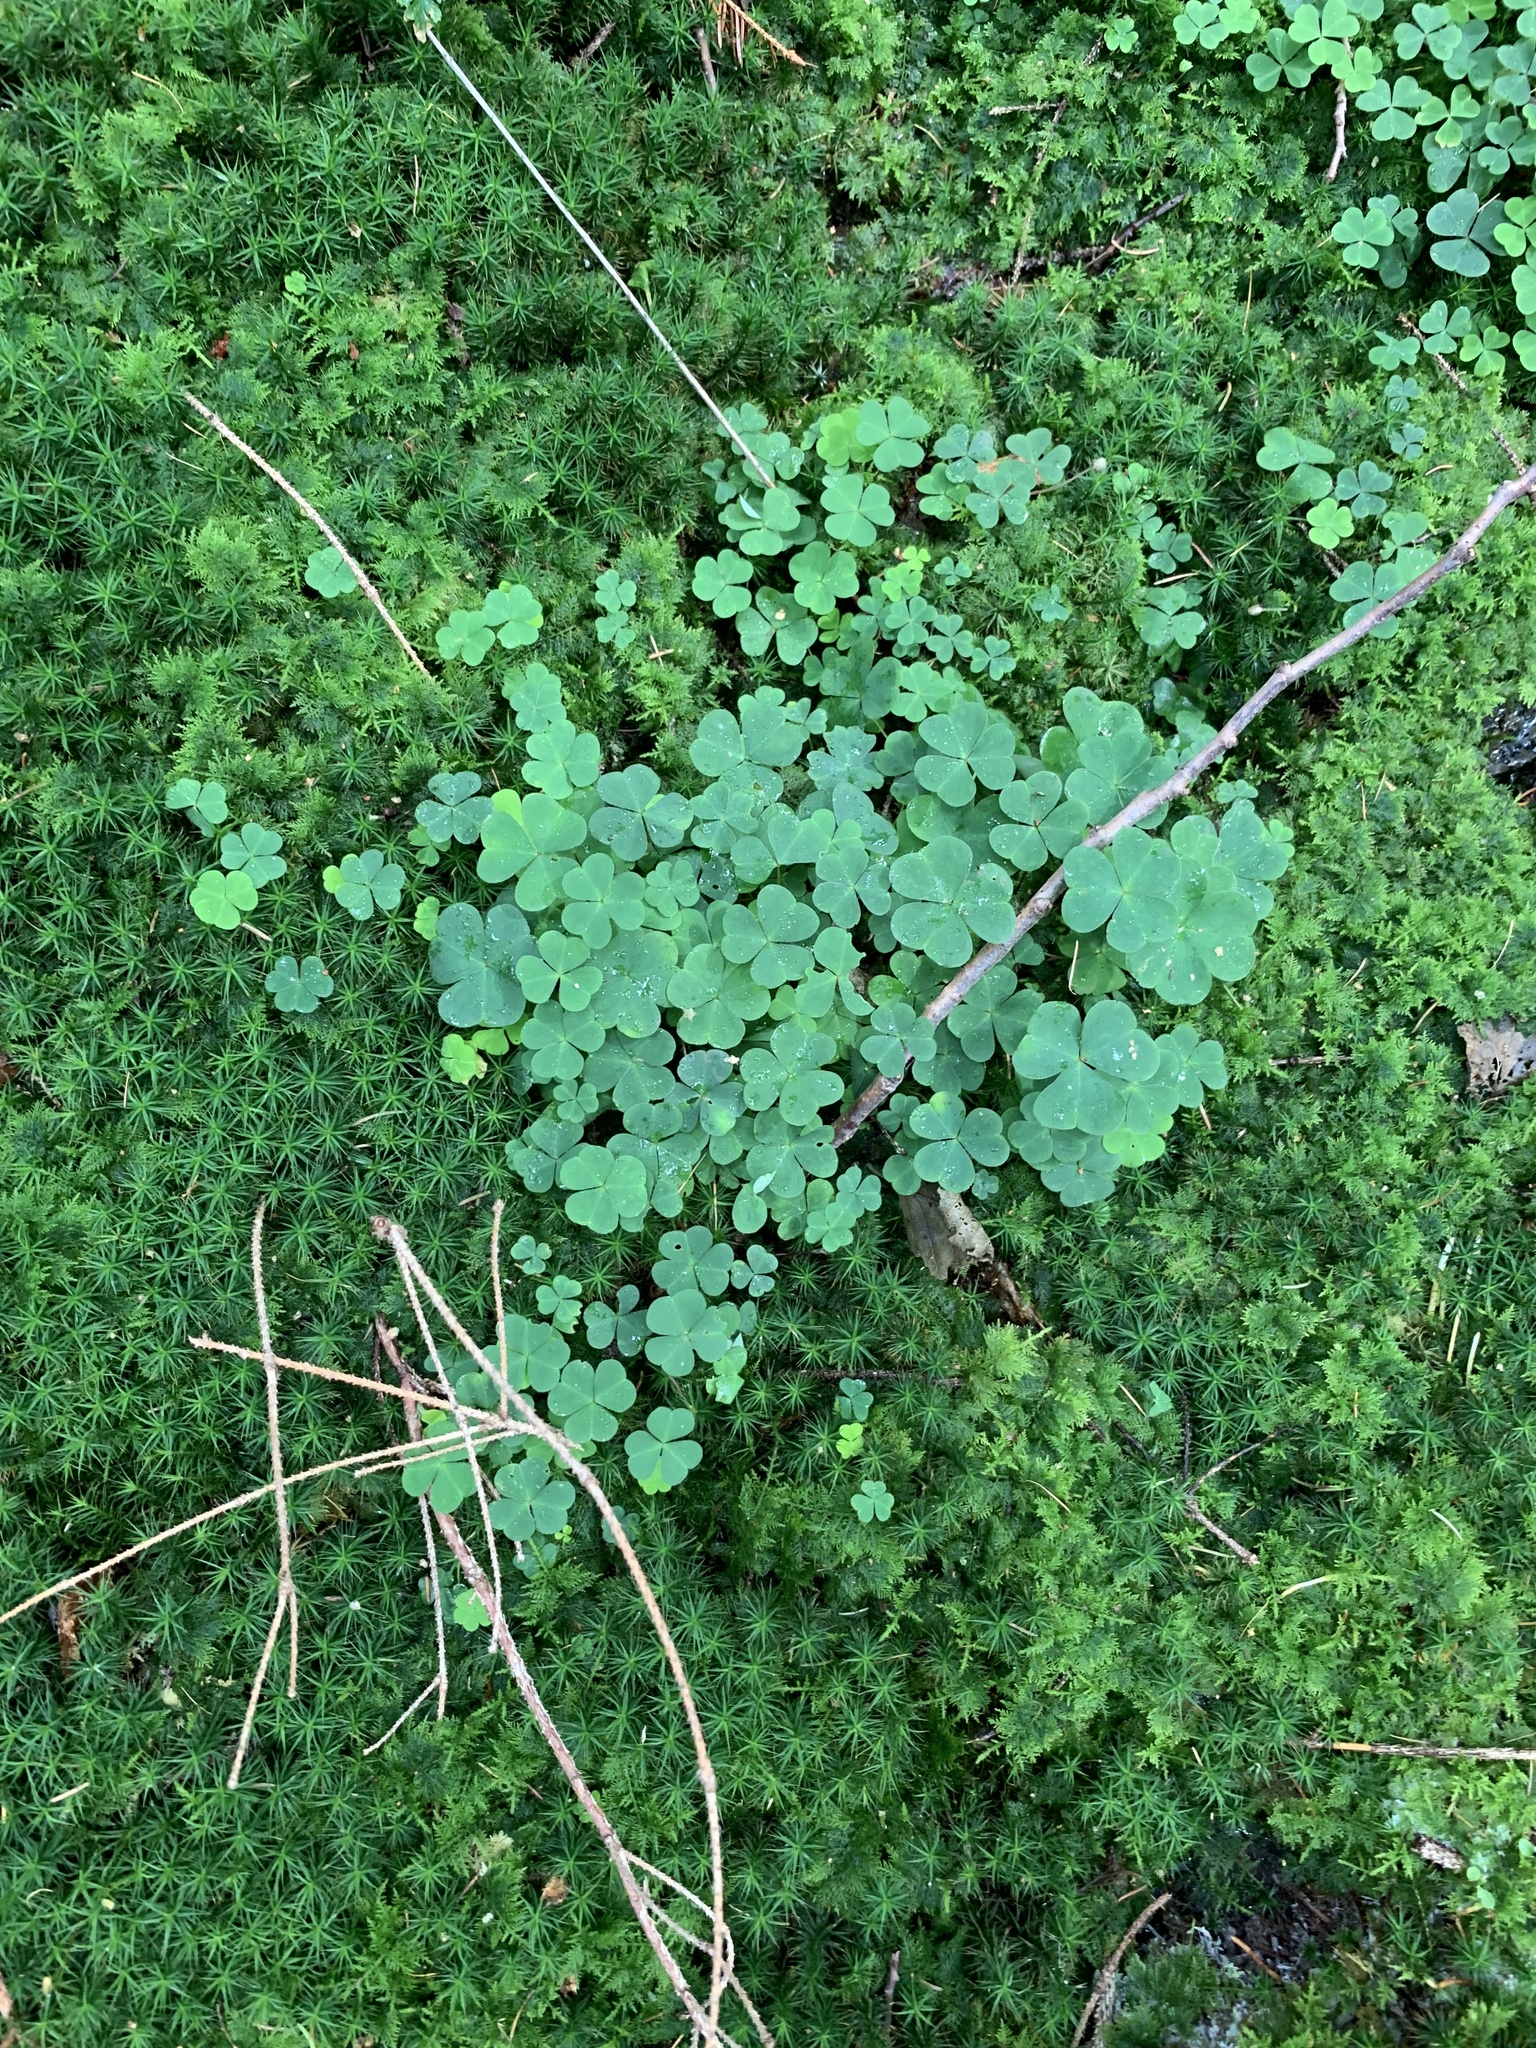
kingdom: Plantae
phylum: Tracheophyta
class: Magnoliopsida
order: Oxalidales
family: Oxalidaceae
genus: Oxalis
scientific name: Oxalis acetosella
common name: Wood-sorrel
